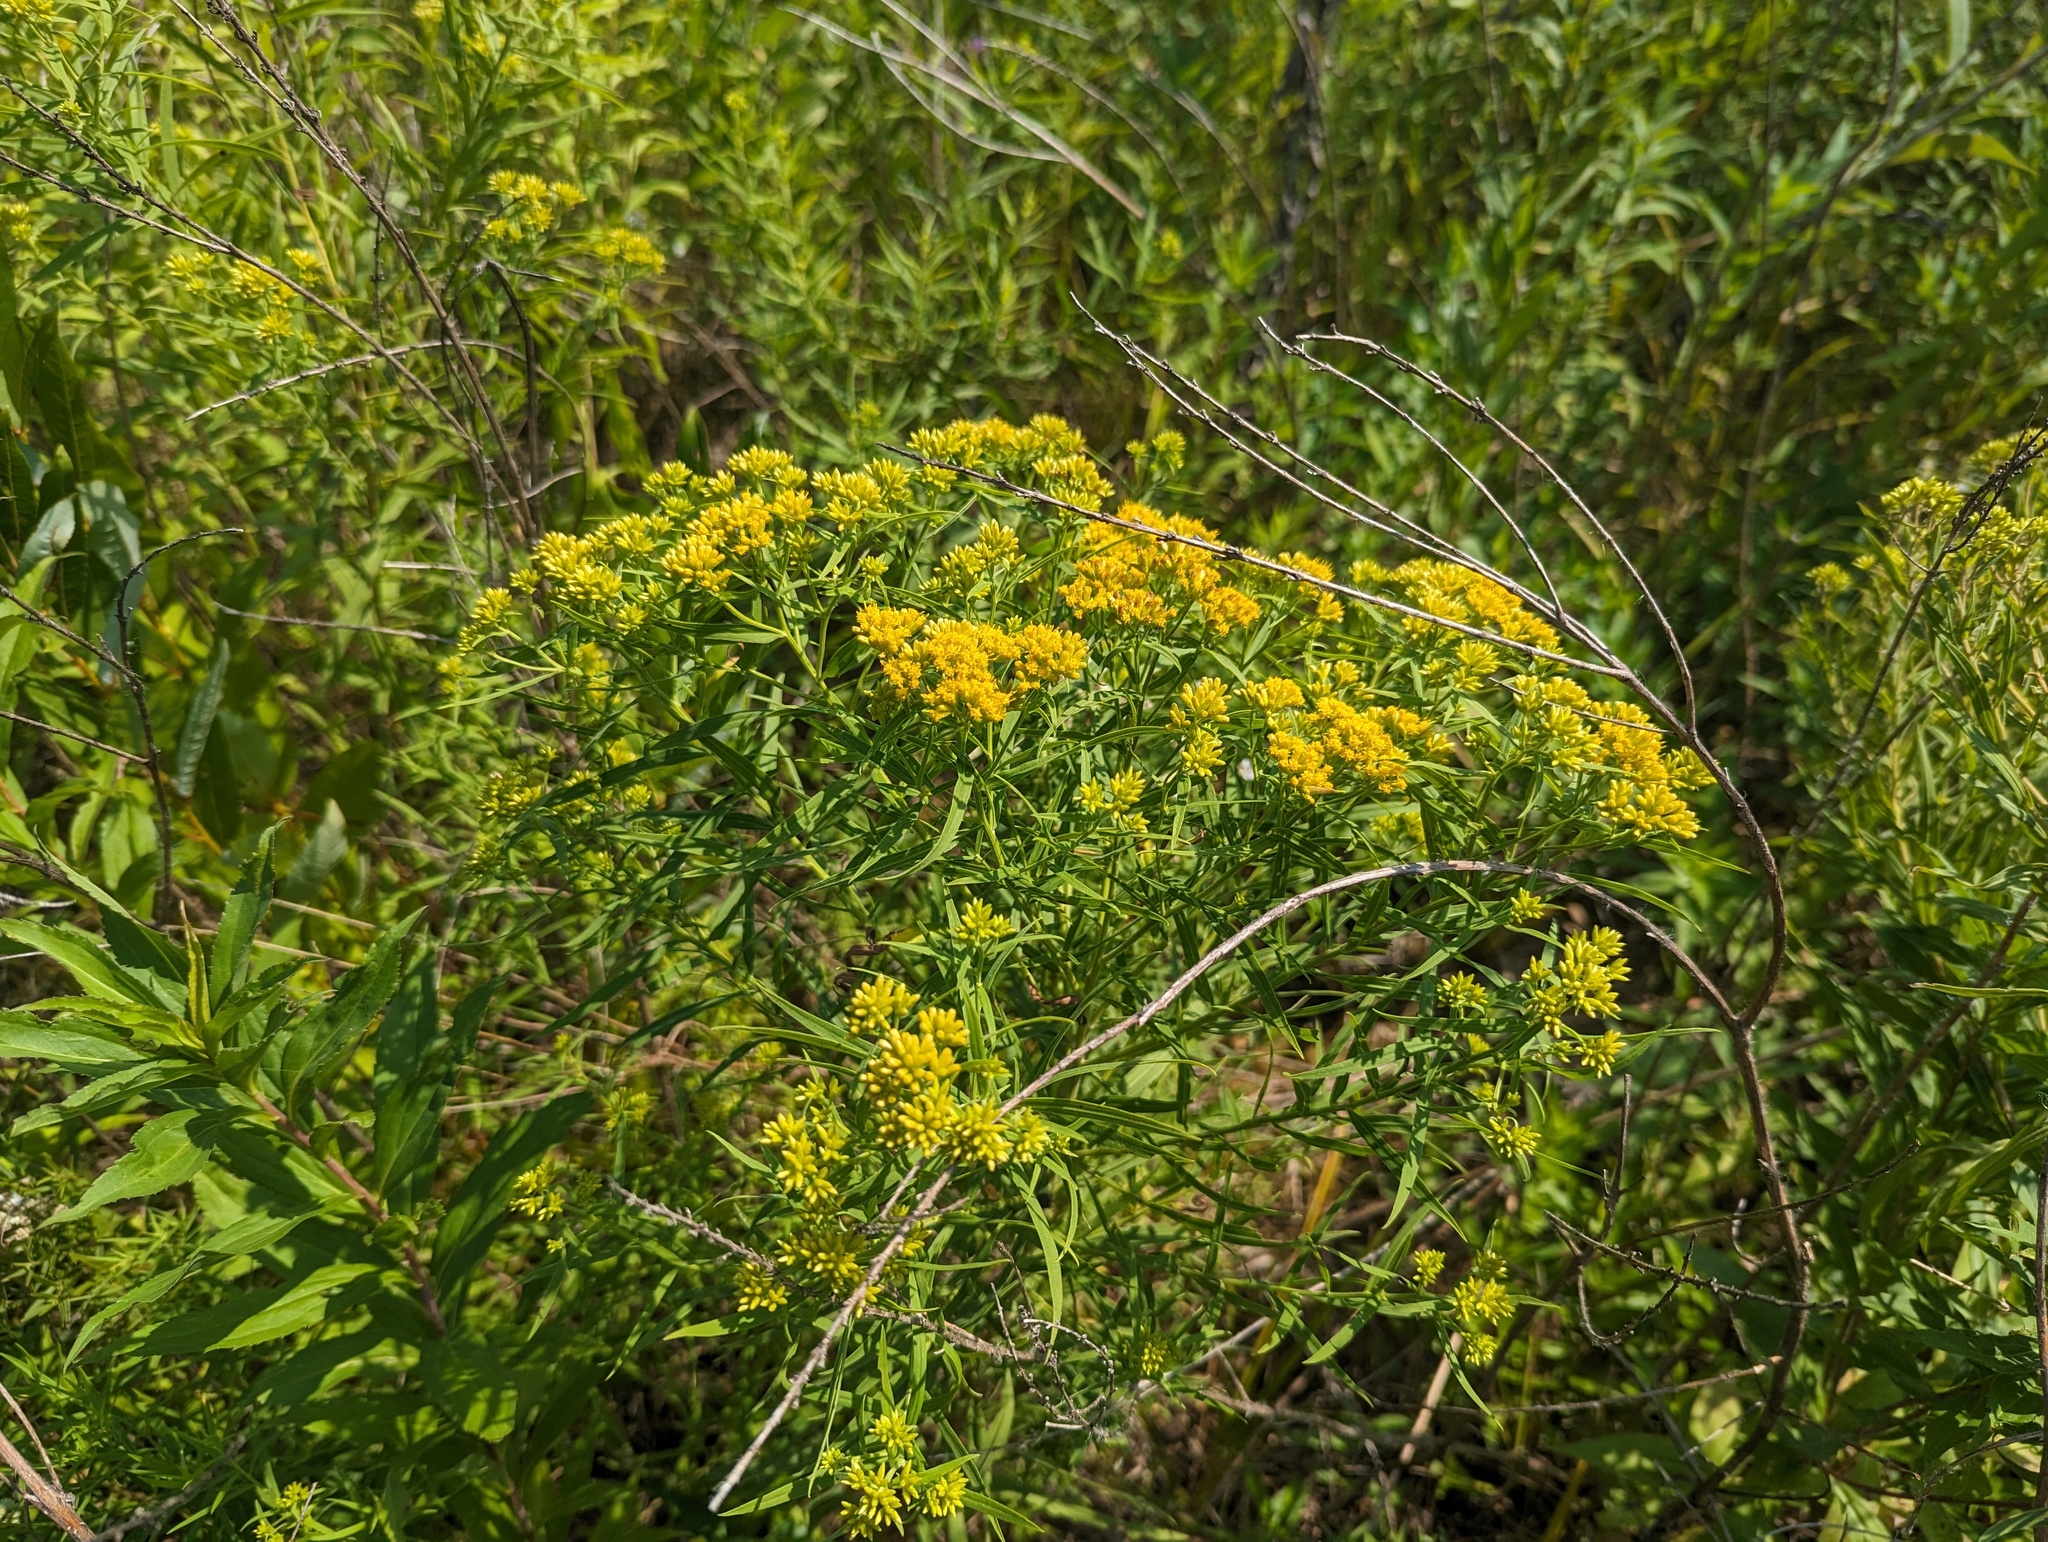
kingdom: Plantae
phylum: Tracheophyta
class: Magnoliopsida
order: Asterales
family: Asteraceae
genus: Euthamia
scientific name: Euthamia graminifolia
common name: Common goldentop
